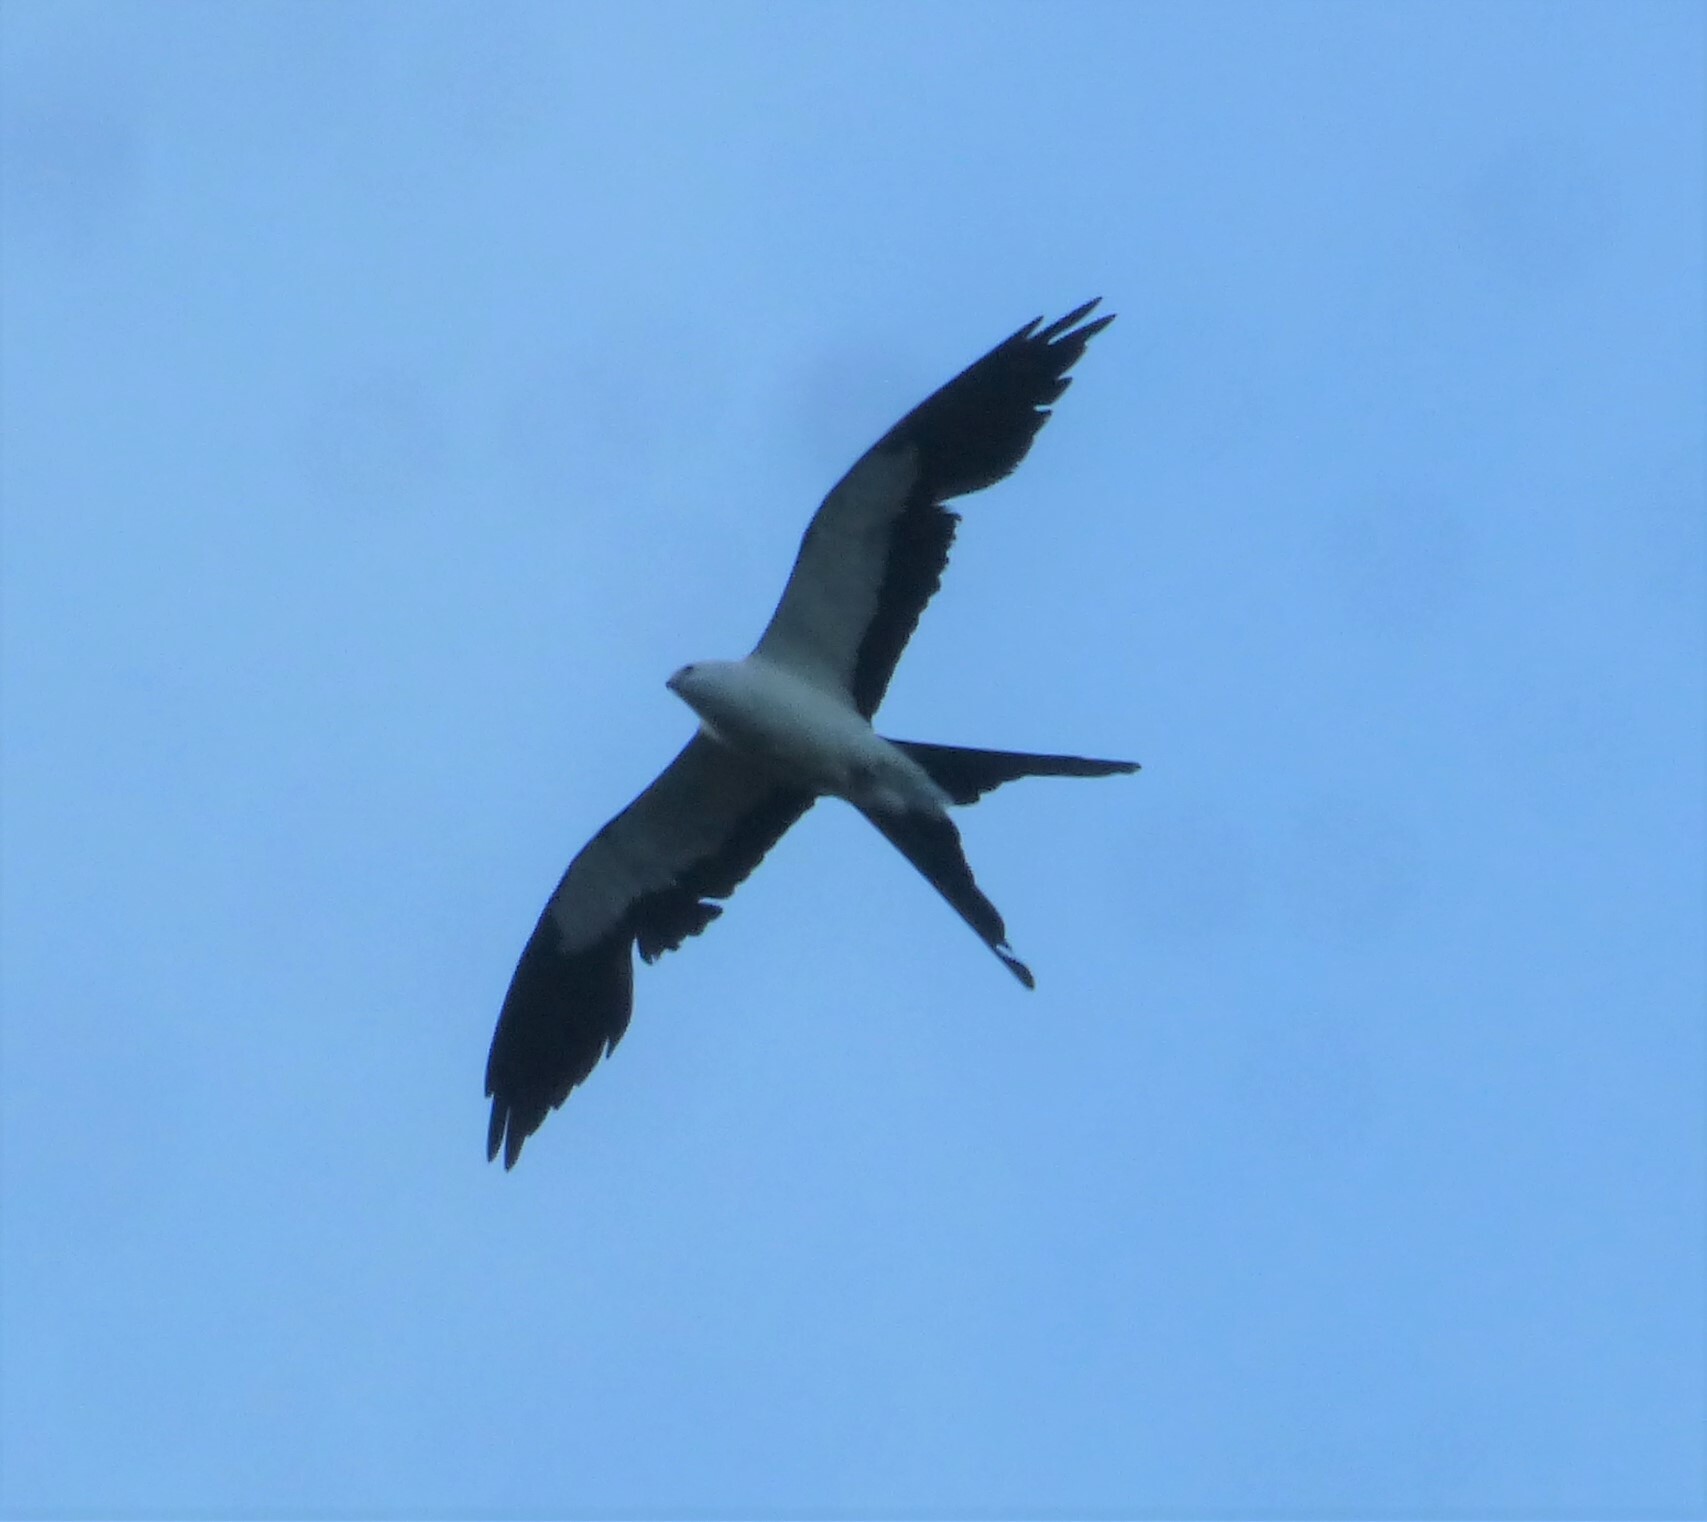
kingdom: Animalia
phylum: Chordata
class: Aves
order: Accipitriformes
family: Accipitridae
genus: Elanoides
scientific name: Elanoides forficatus
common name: Swallow-tailed kite
